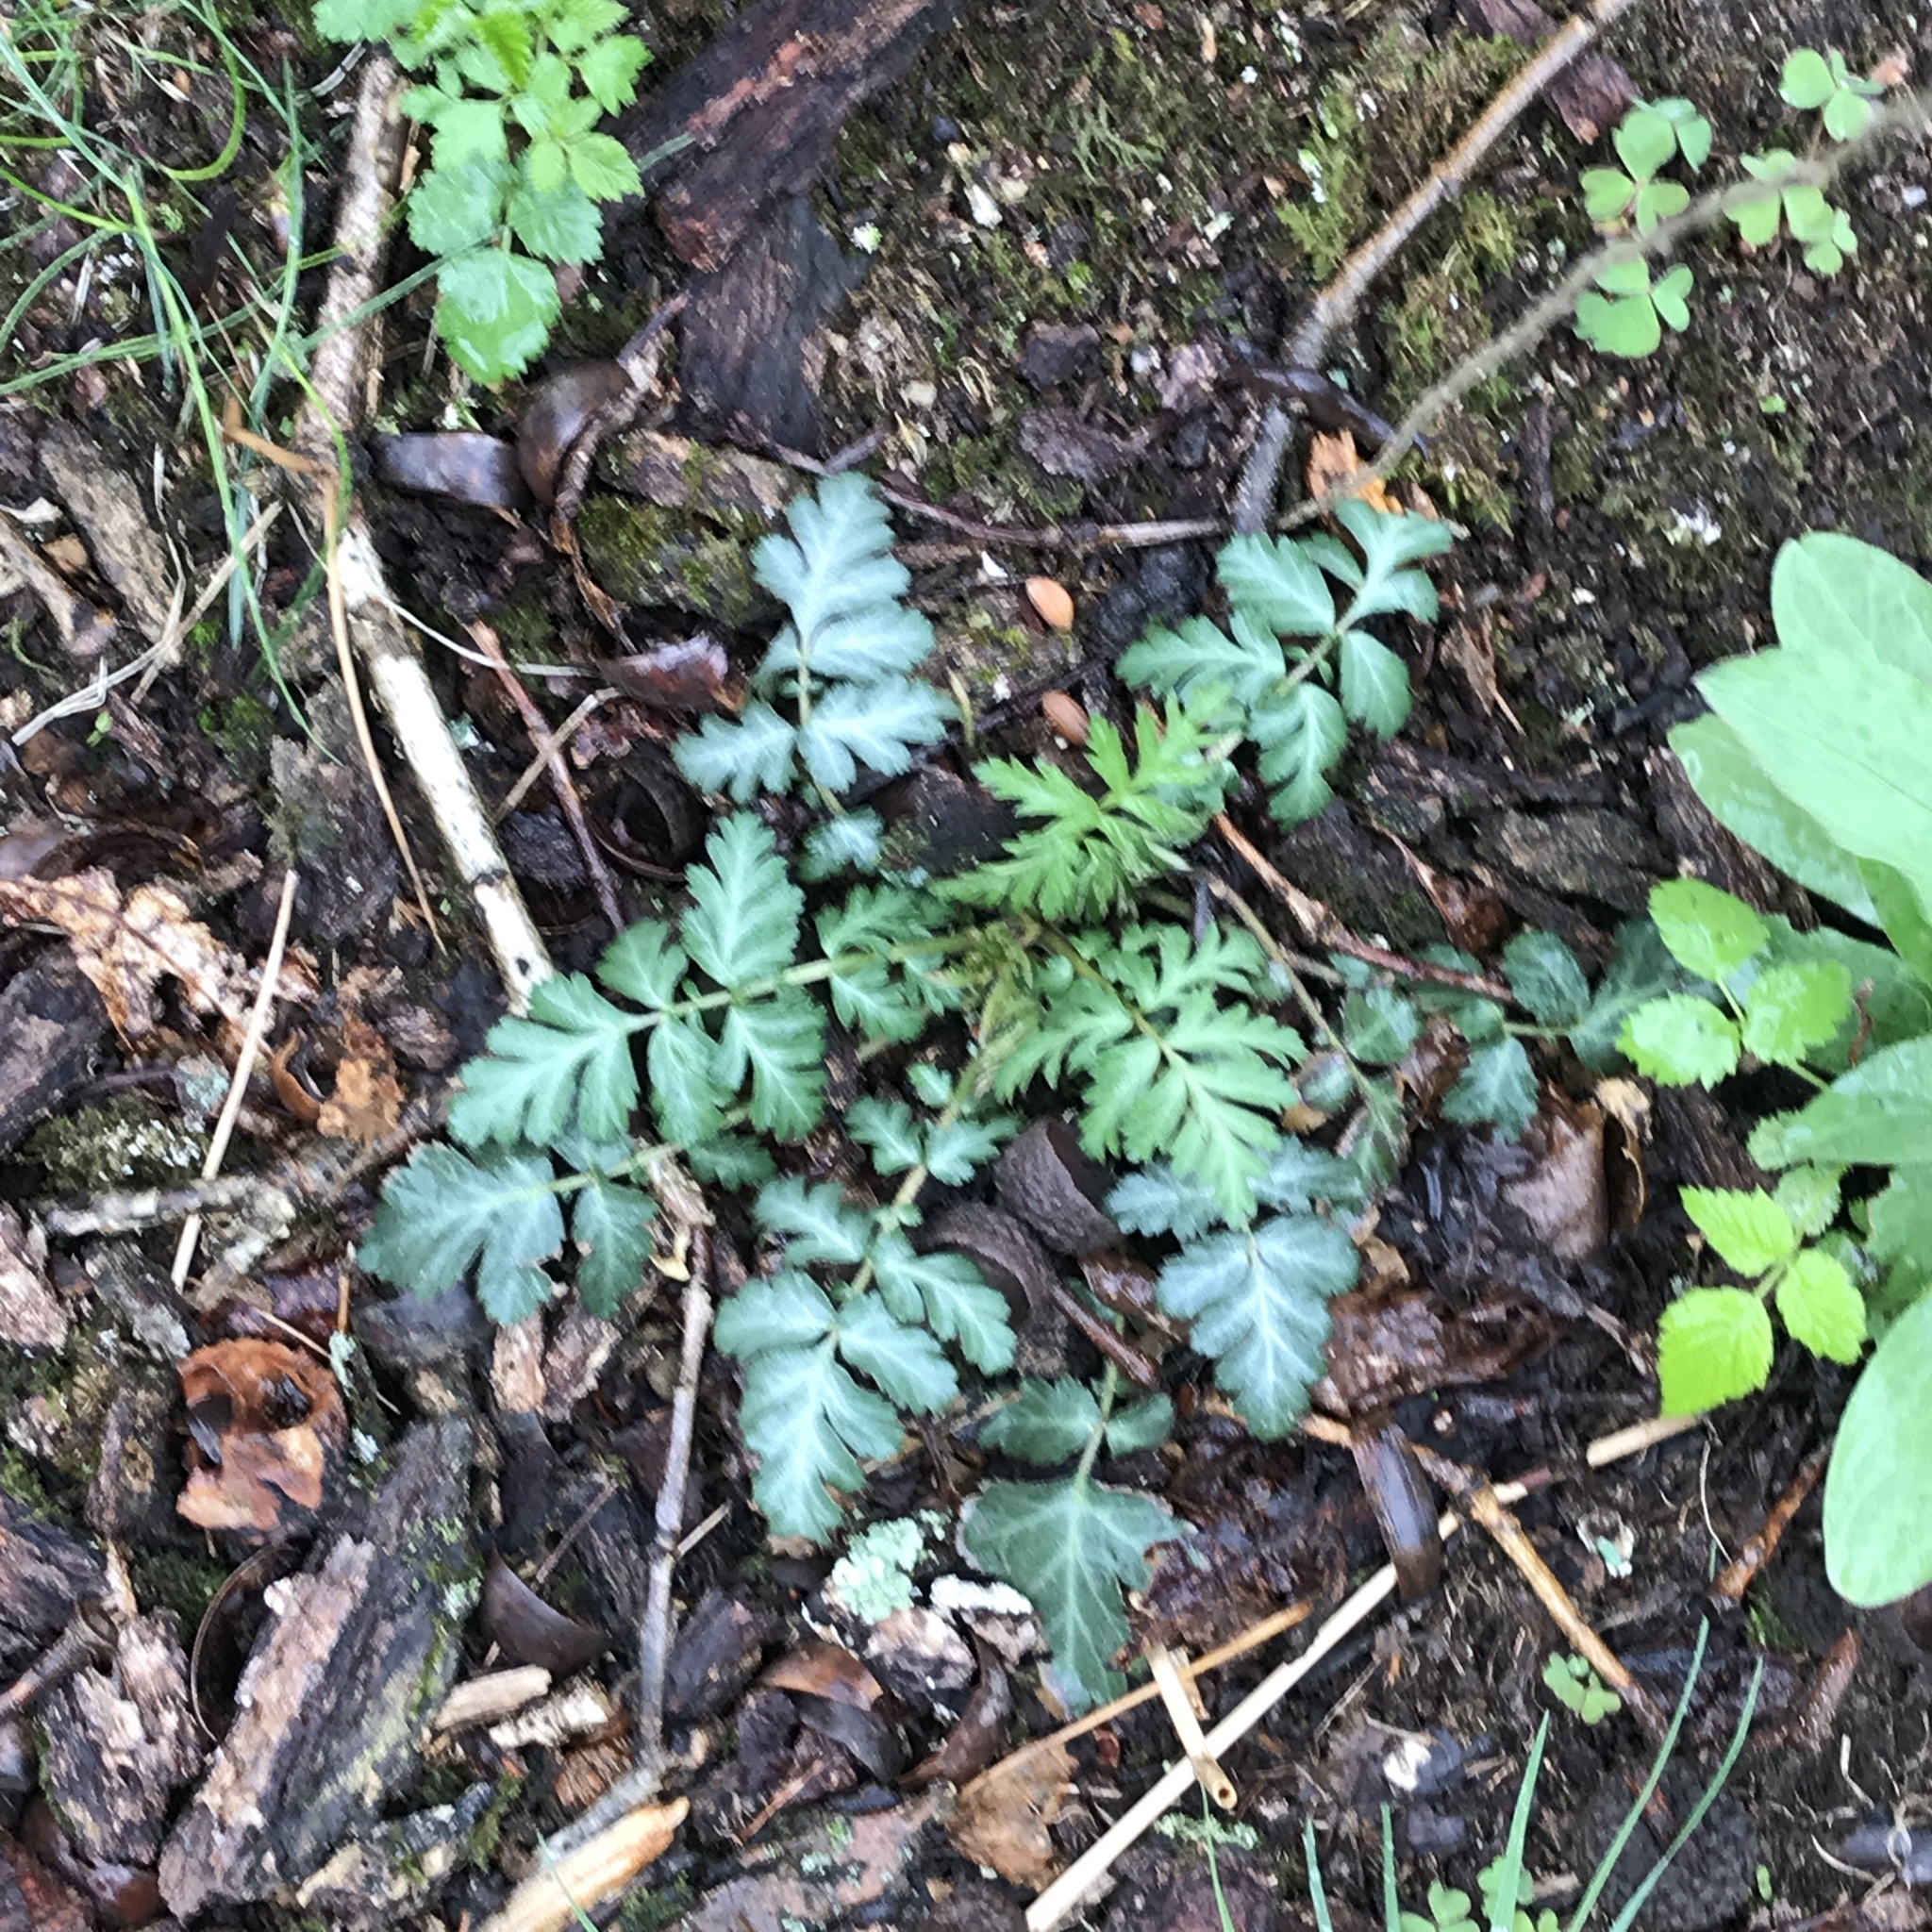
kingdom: Plantae
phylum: Tracheophyta
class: Magnoliopsida
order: Rosales
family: Rosaceae
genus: Geum
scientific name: Geum canadense
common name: White avens
